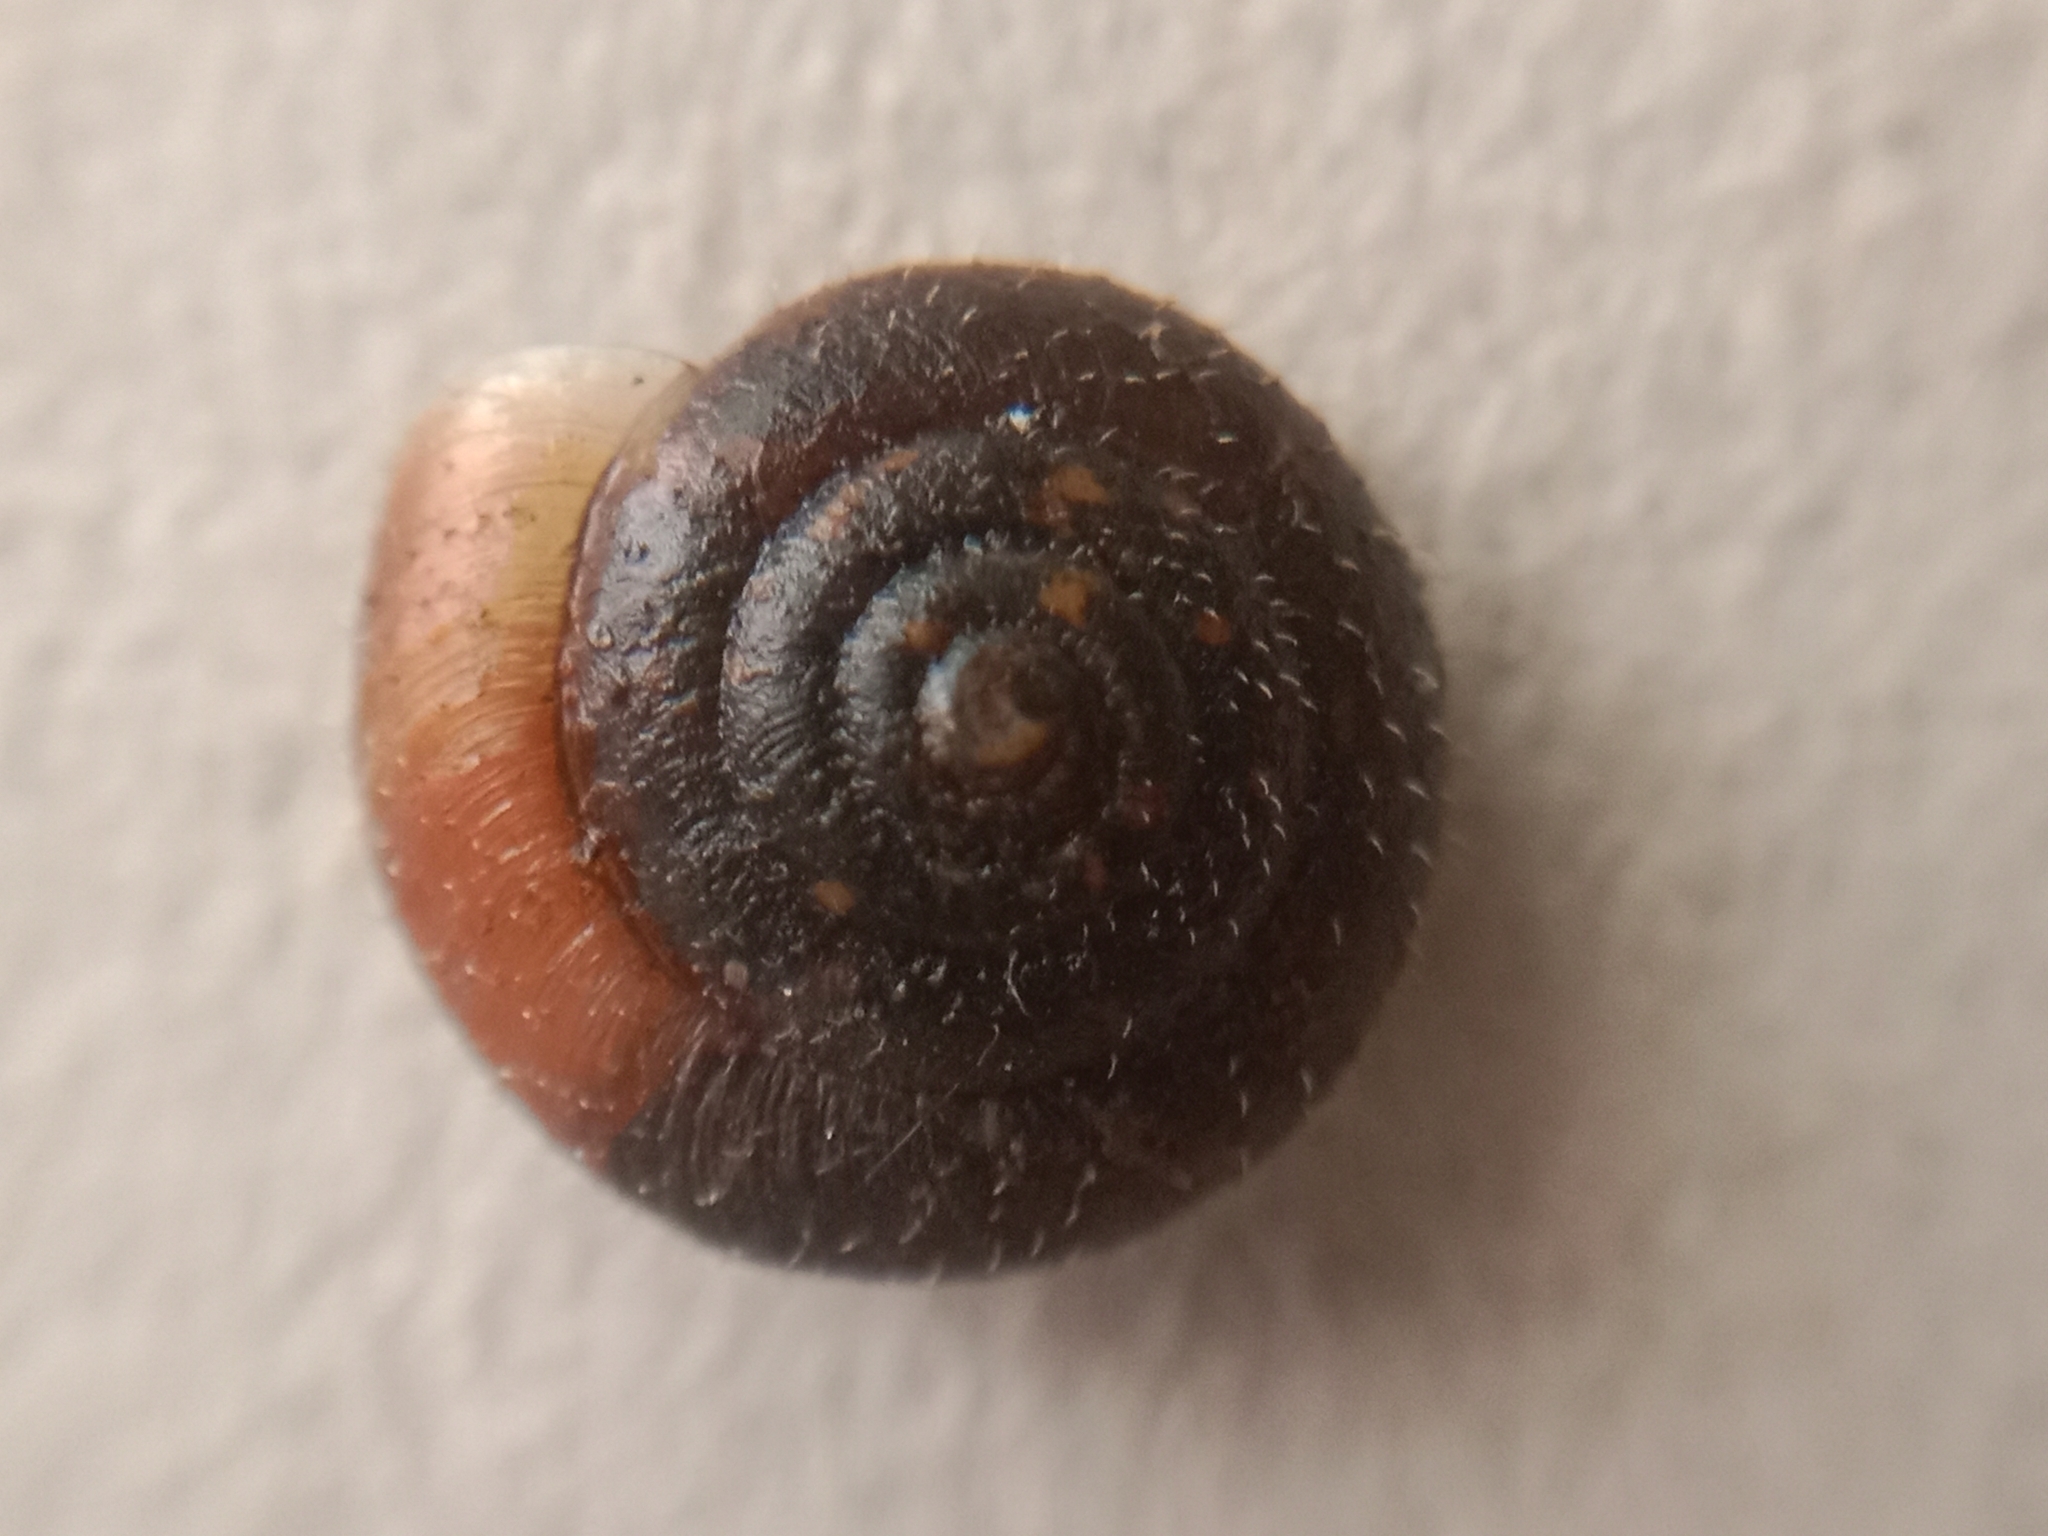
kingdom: Animalia
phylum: Mollusca
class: Gastropoda
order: Stylommatophora
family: Hygromiidae
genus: Trochulus
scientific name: Trochulus hispidus
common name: Hairy snail
